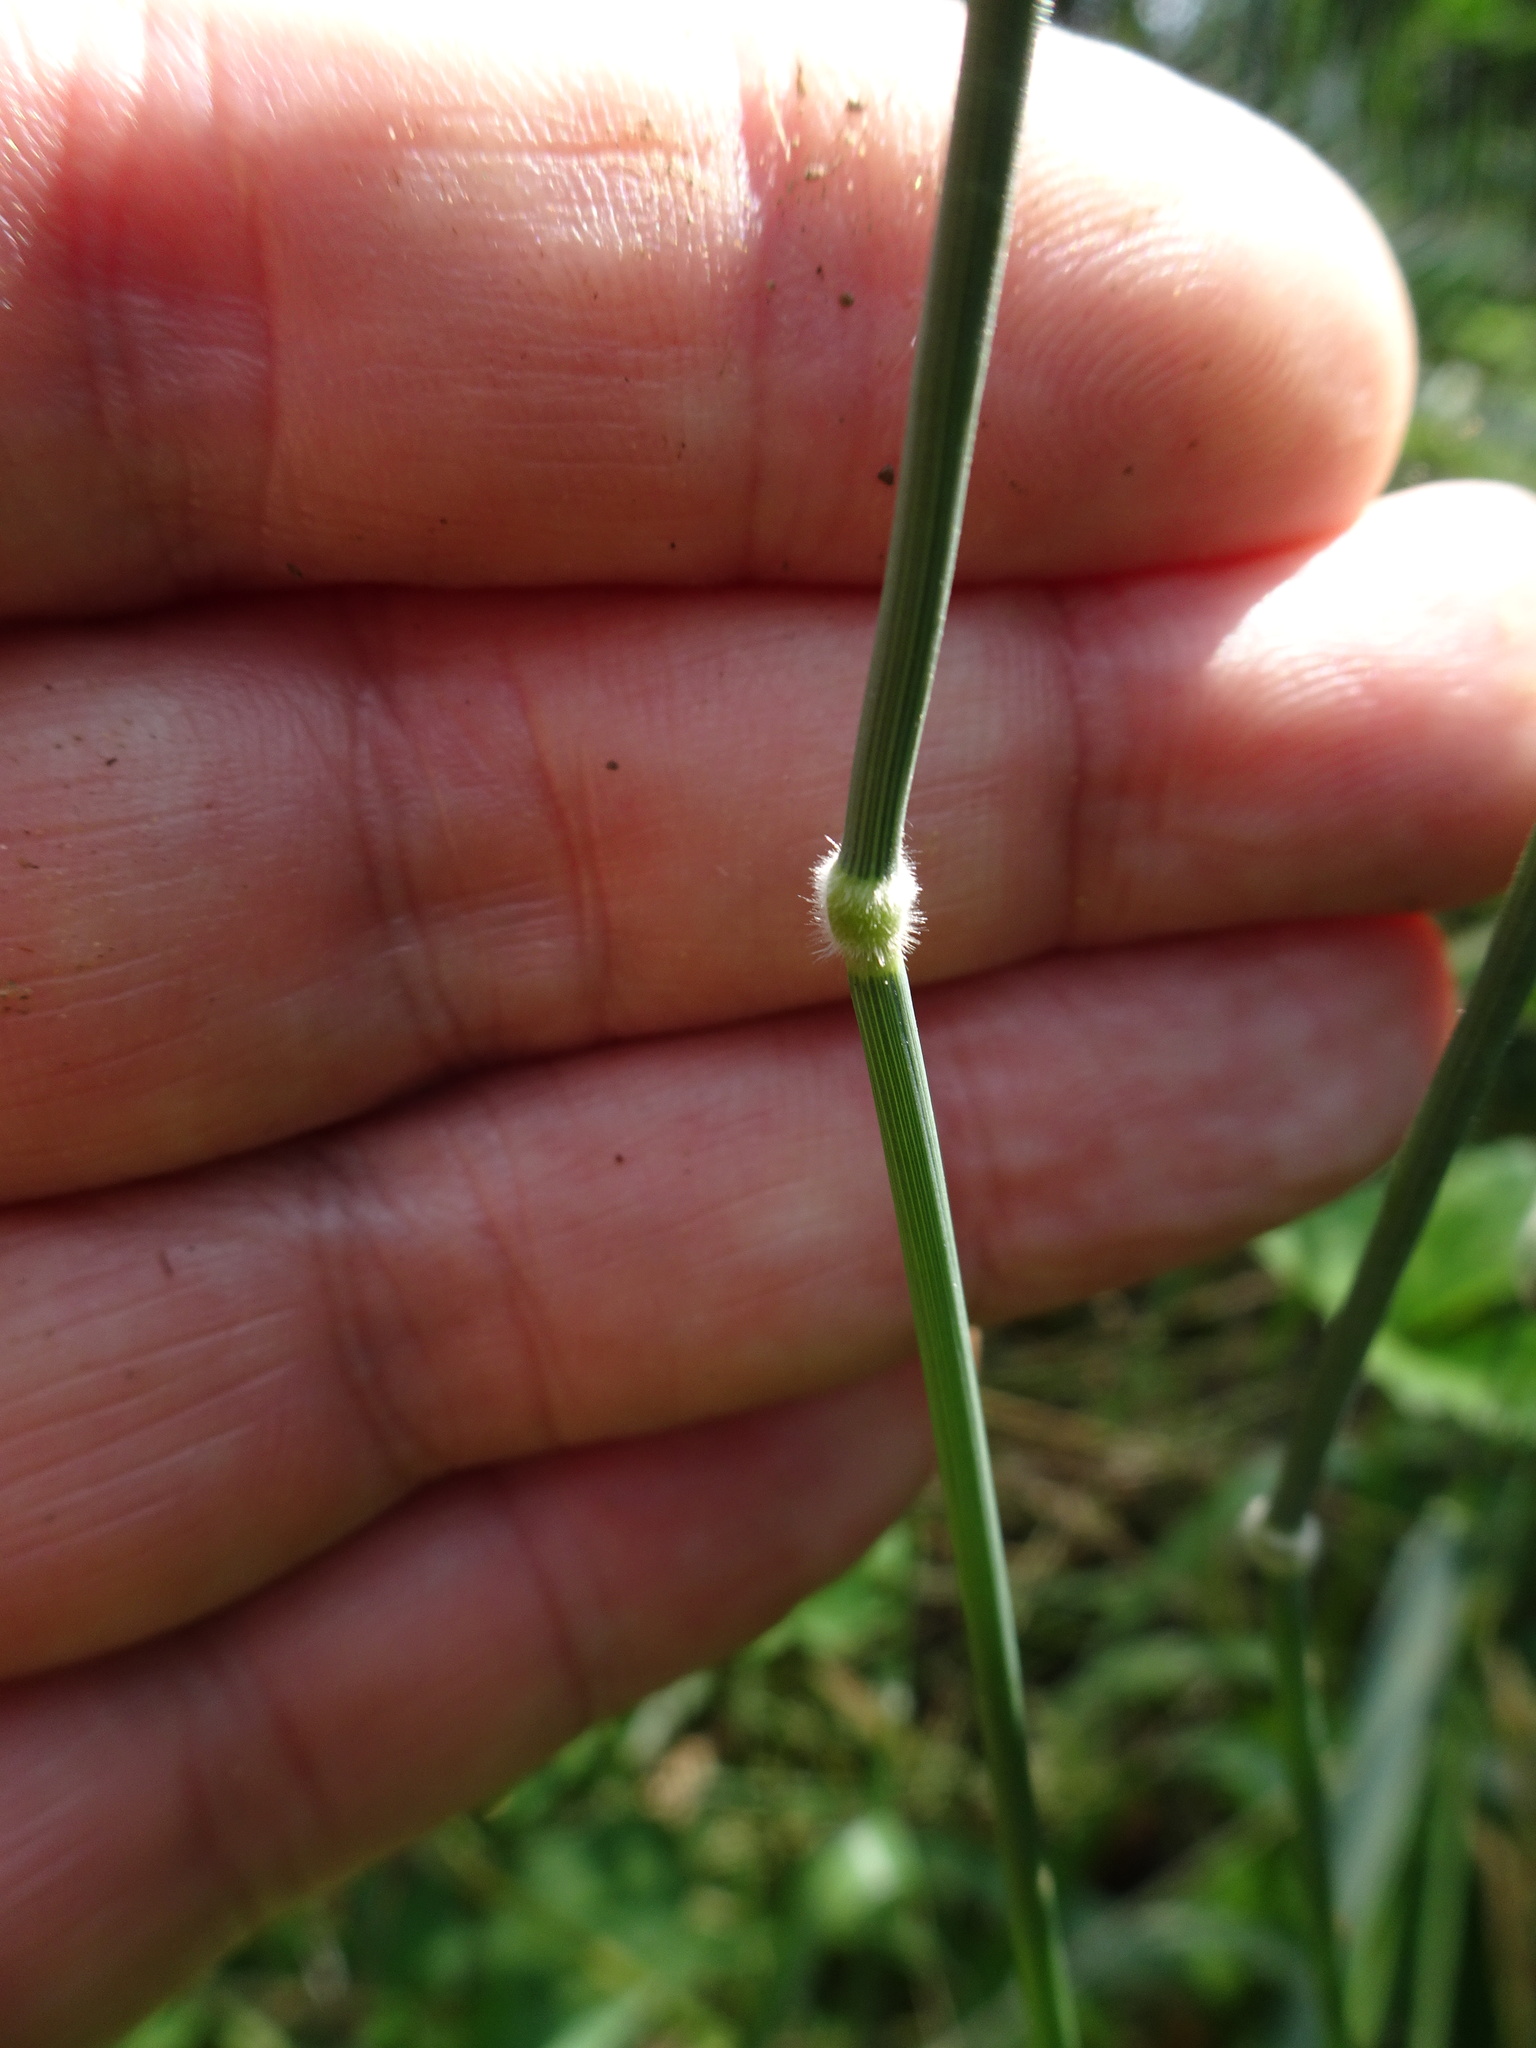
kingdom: Plantae
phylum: Tracheophyta
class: Liliopsida
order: Poales
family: Poaceae
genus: Holcus
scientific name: Holcus mollis
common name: Creeping velvetgrass
